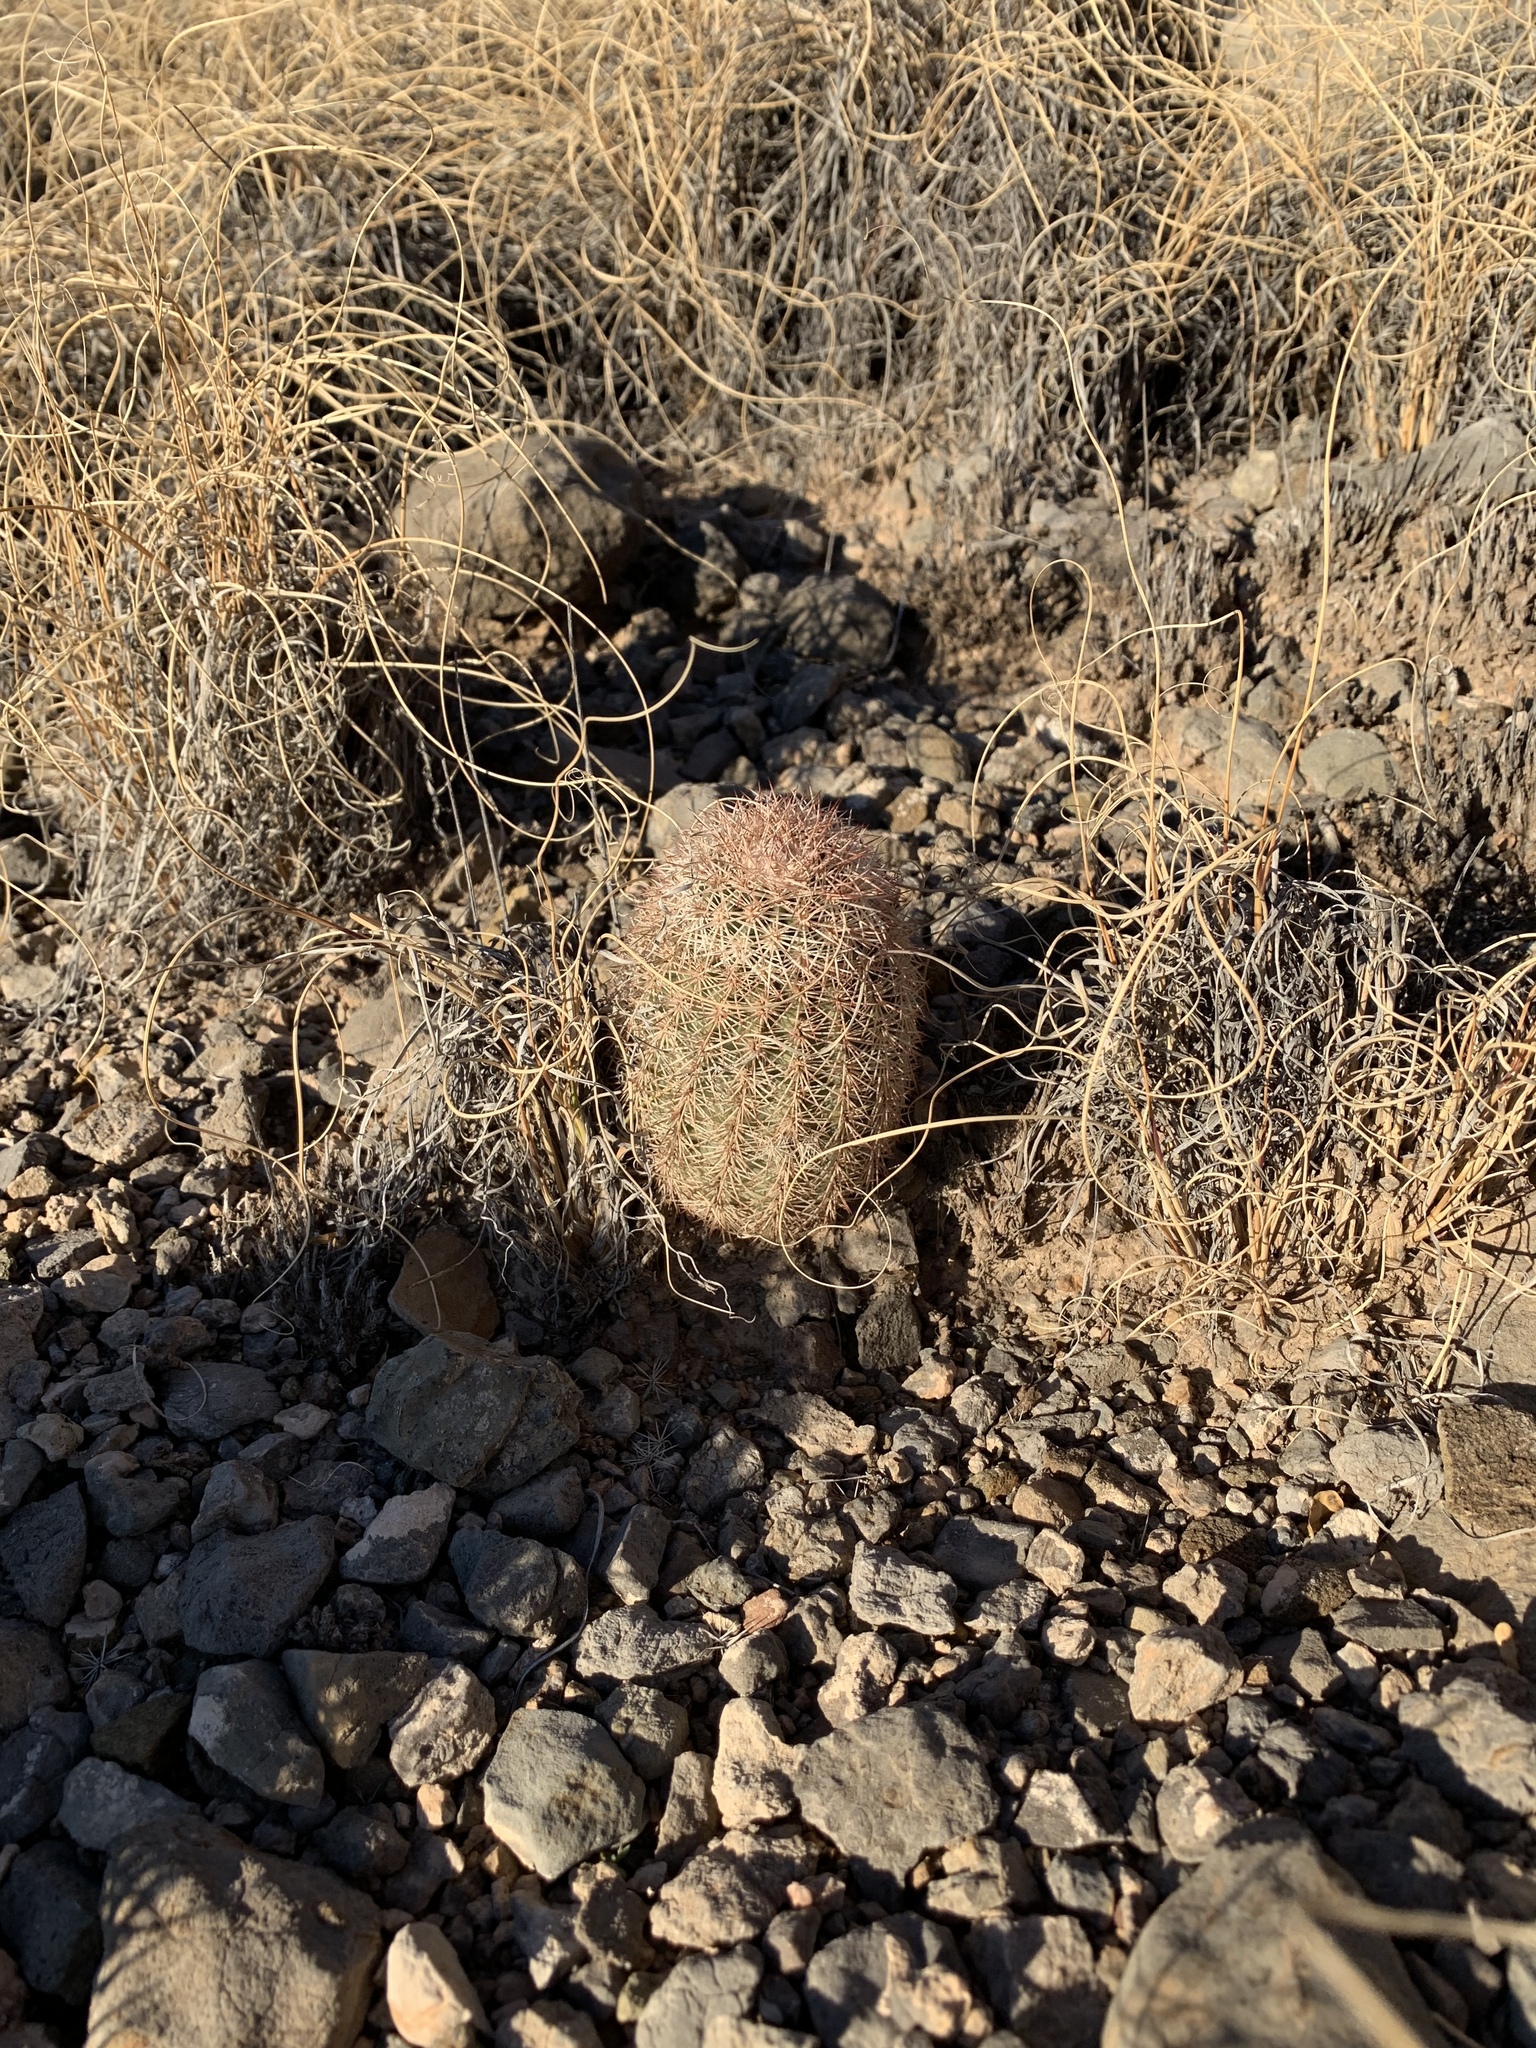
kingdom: Plantae
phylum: Tracheophyta
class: Magnoliopsida
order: Caryophyllales
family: Cactaceae
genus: Echinocereus
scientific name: Echinocereus dasyacanthus
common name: Spiny hedgehog cactus
